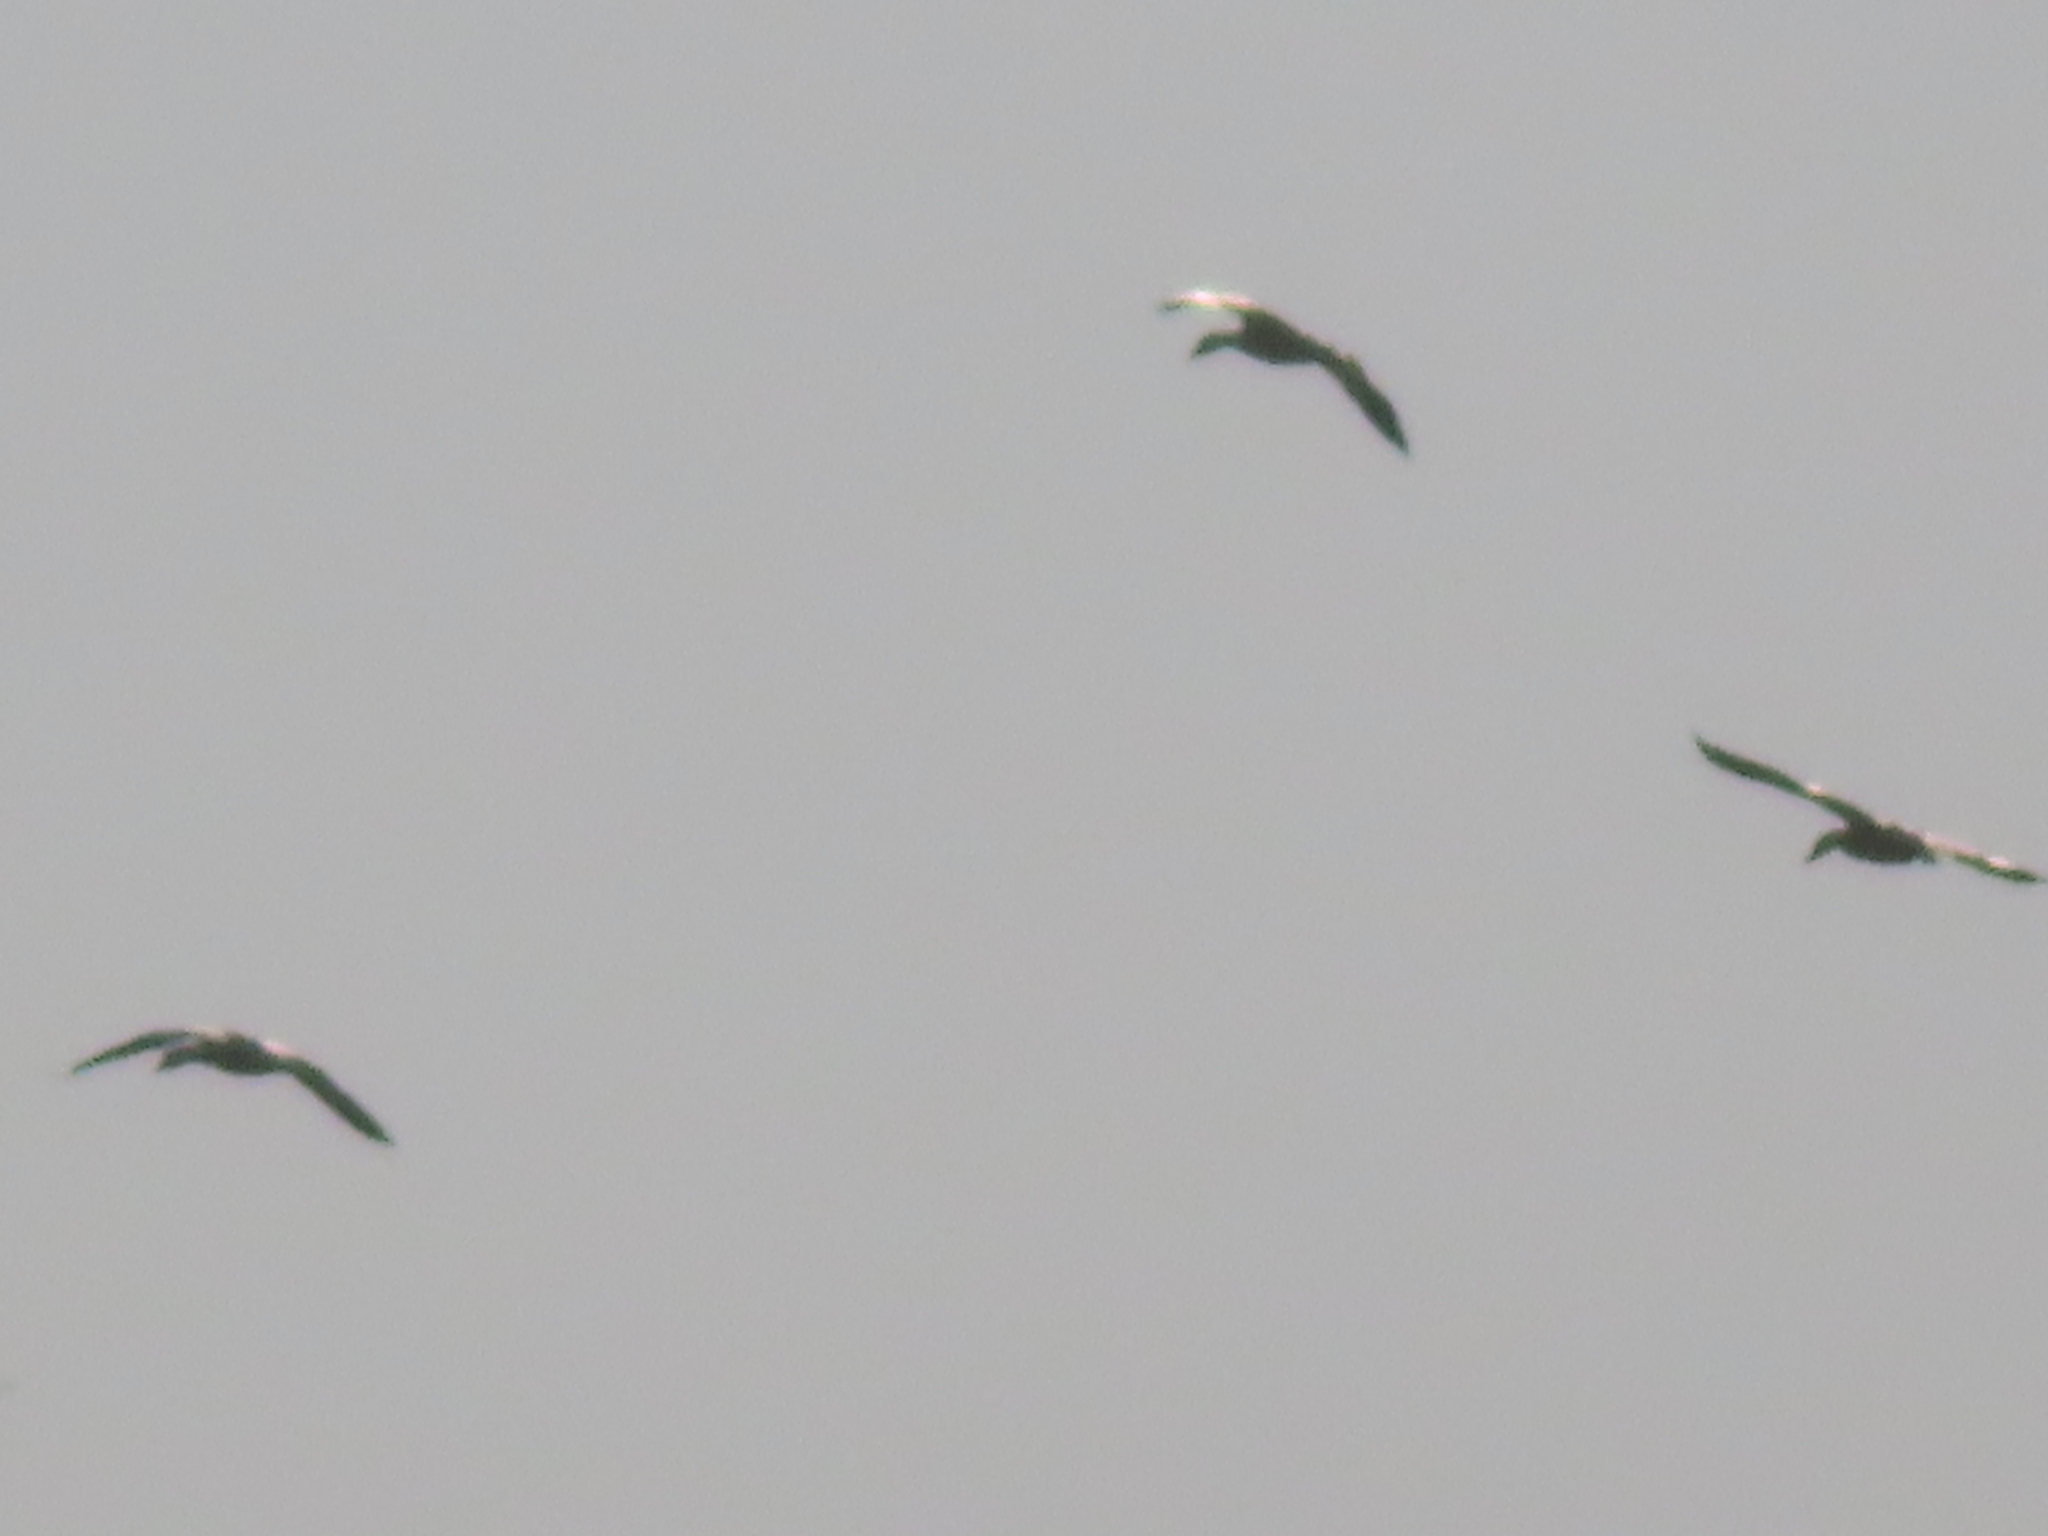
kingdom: Animalia
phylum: Chordata
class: Aves
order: Anseriformes
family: Anatidae
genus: Anser
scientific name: Anser caerulescens
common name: Snow goose
